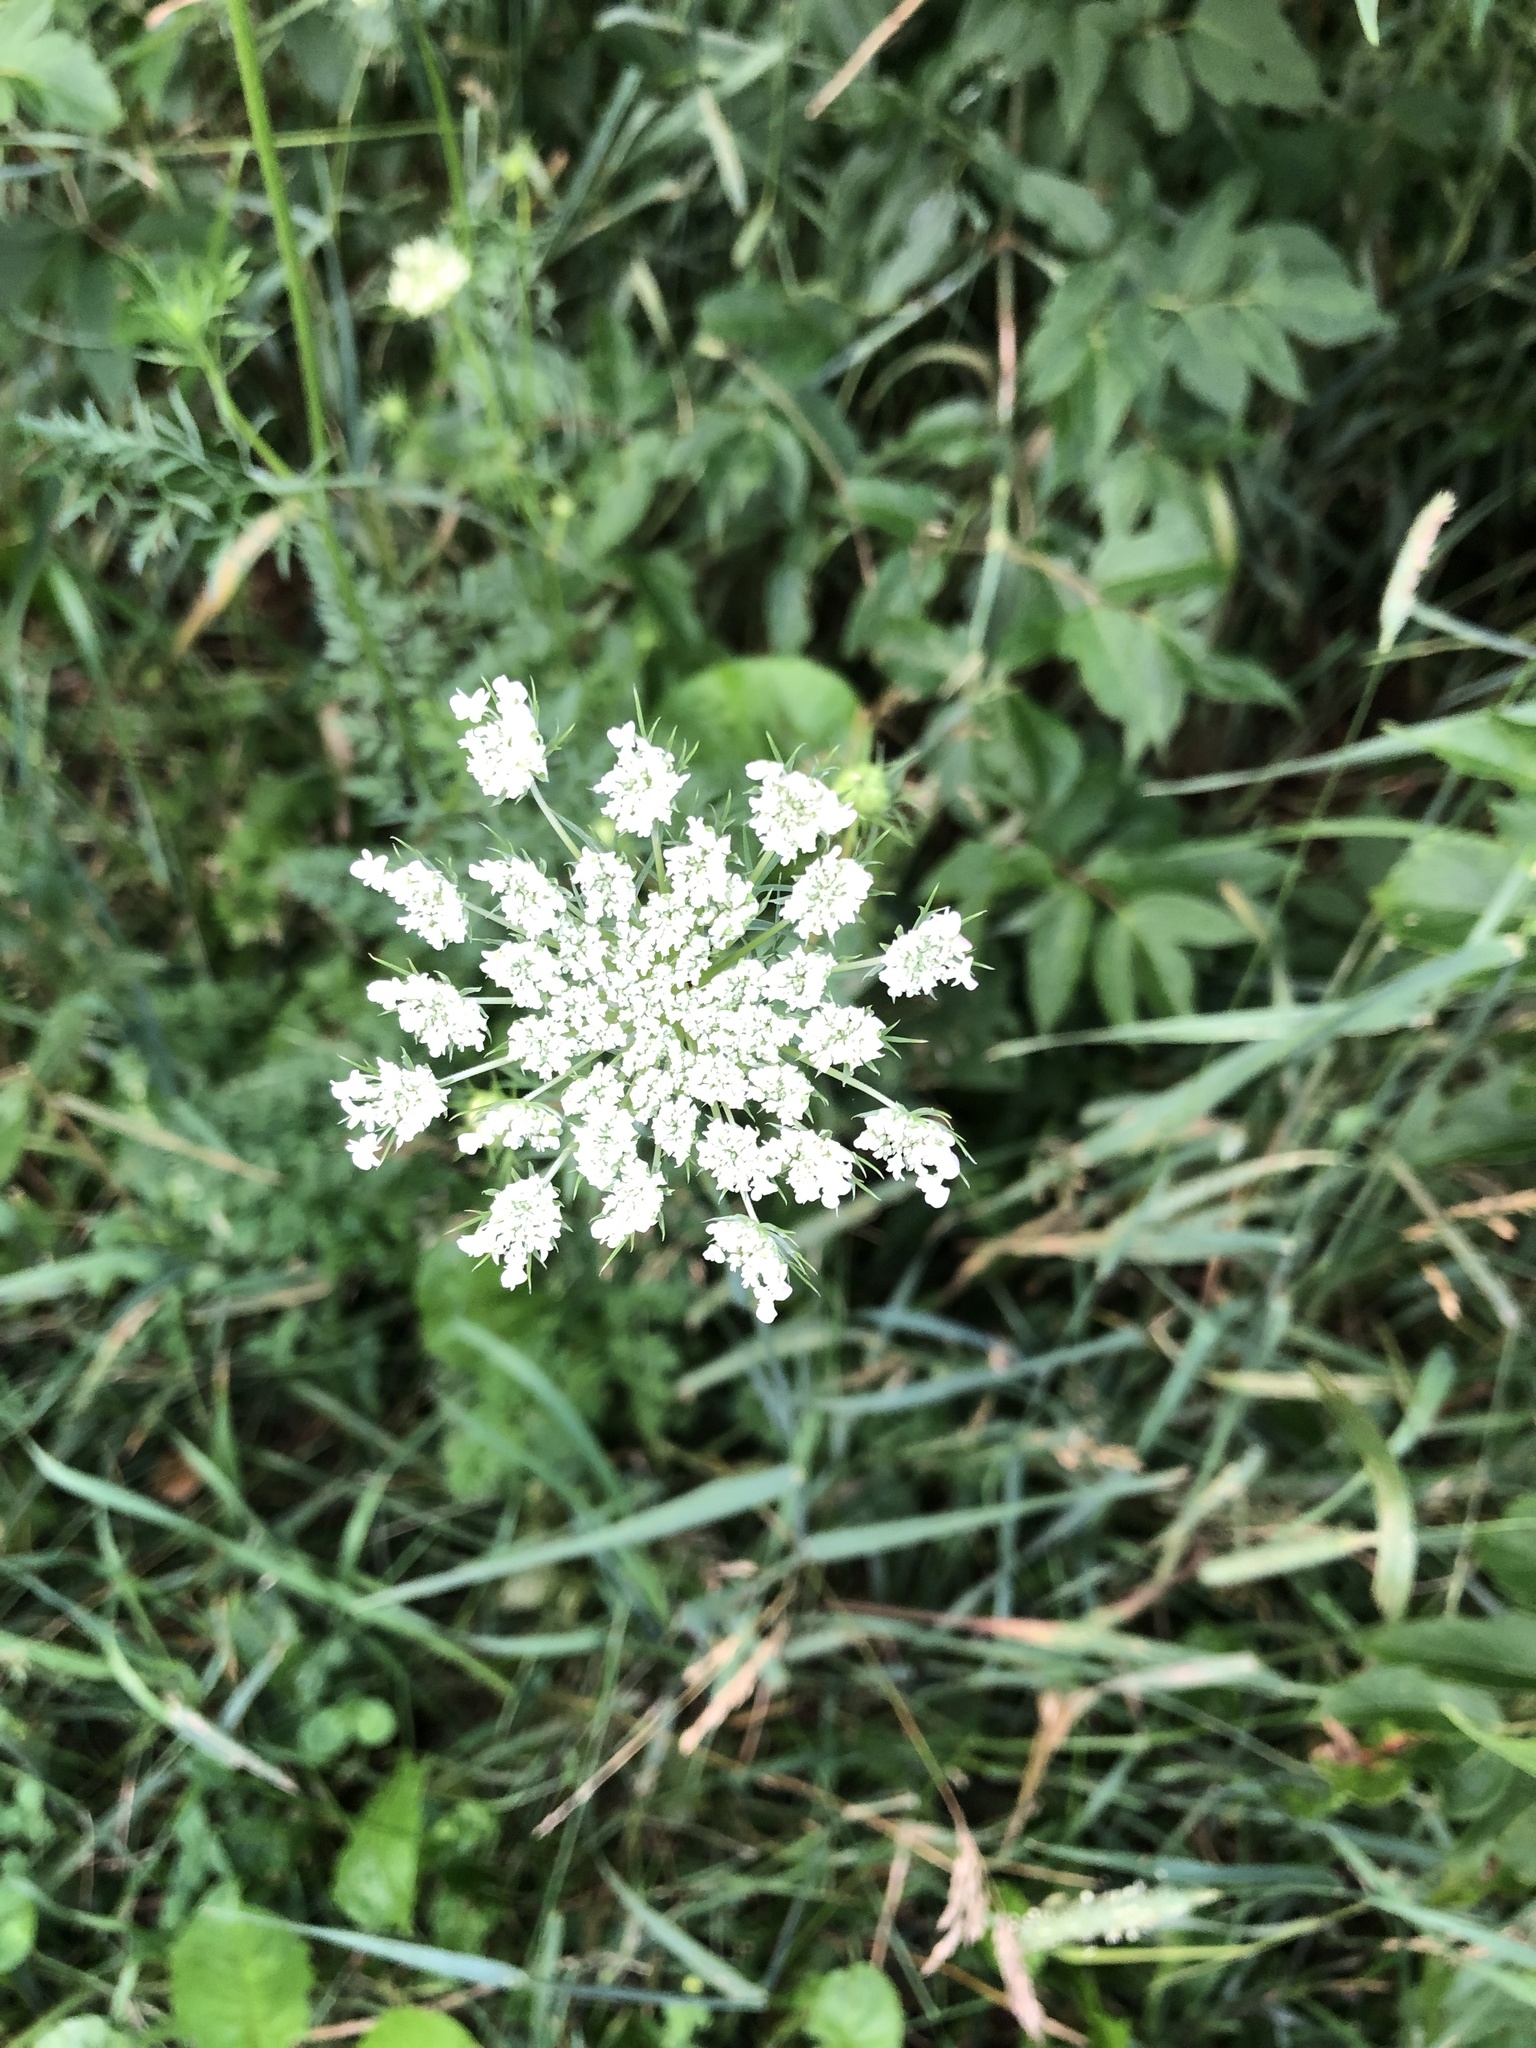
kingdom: Plantae
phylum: Tracheophyta
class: Magnoliopsida
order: Apiales
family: Apiaceae
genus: Daucus
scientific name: Daucus carota
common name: Wild carrot
